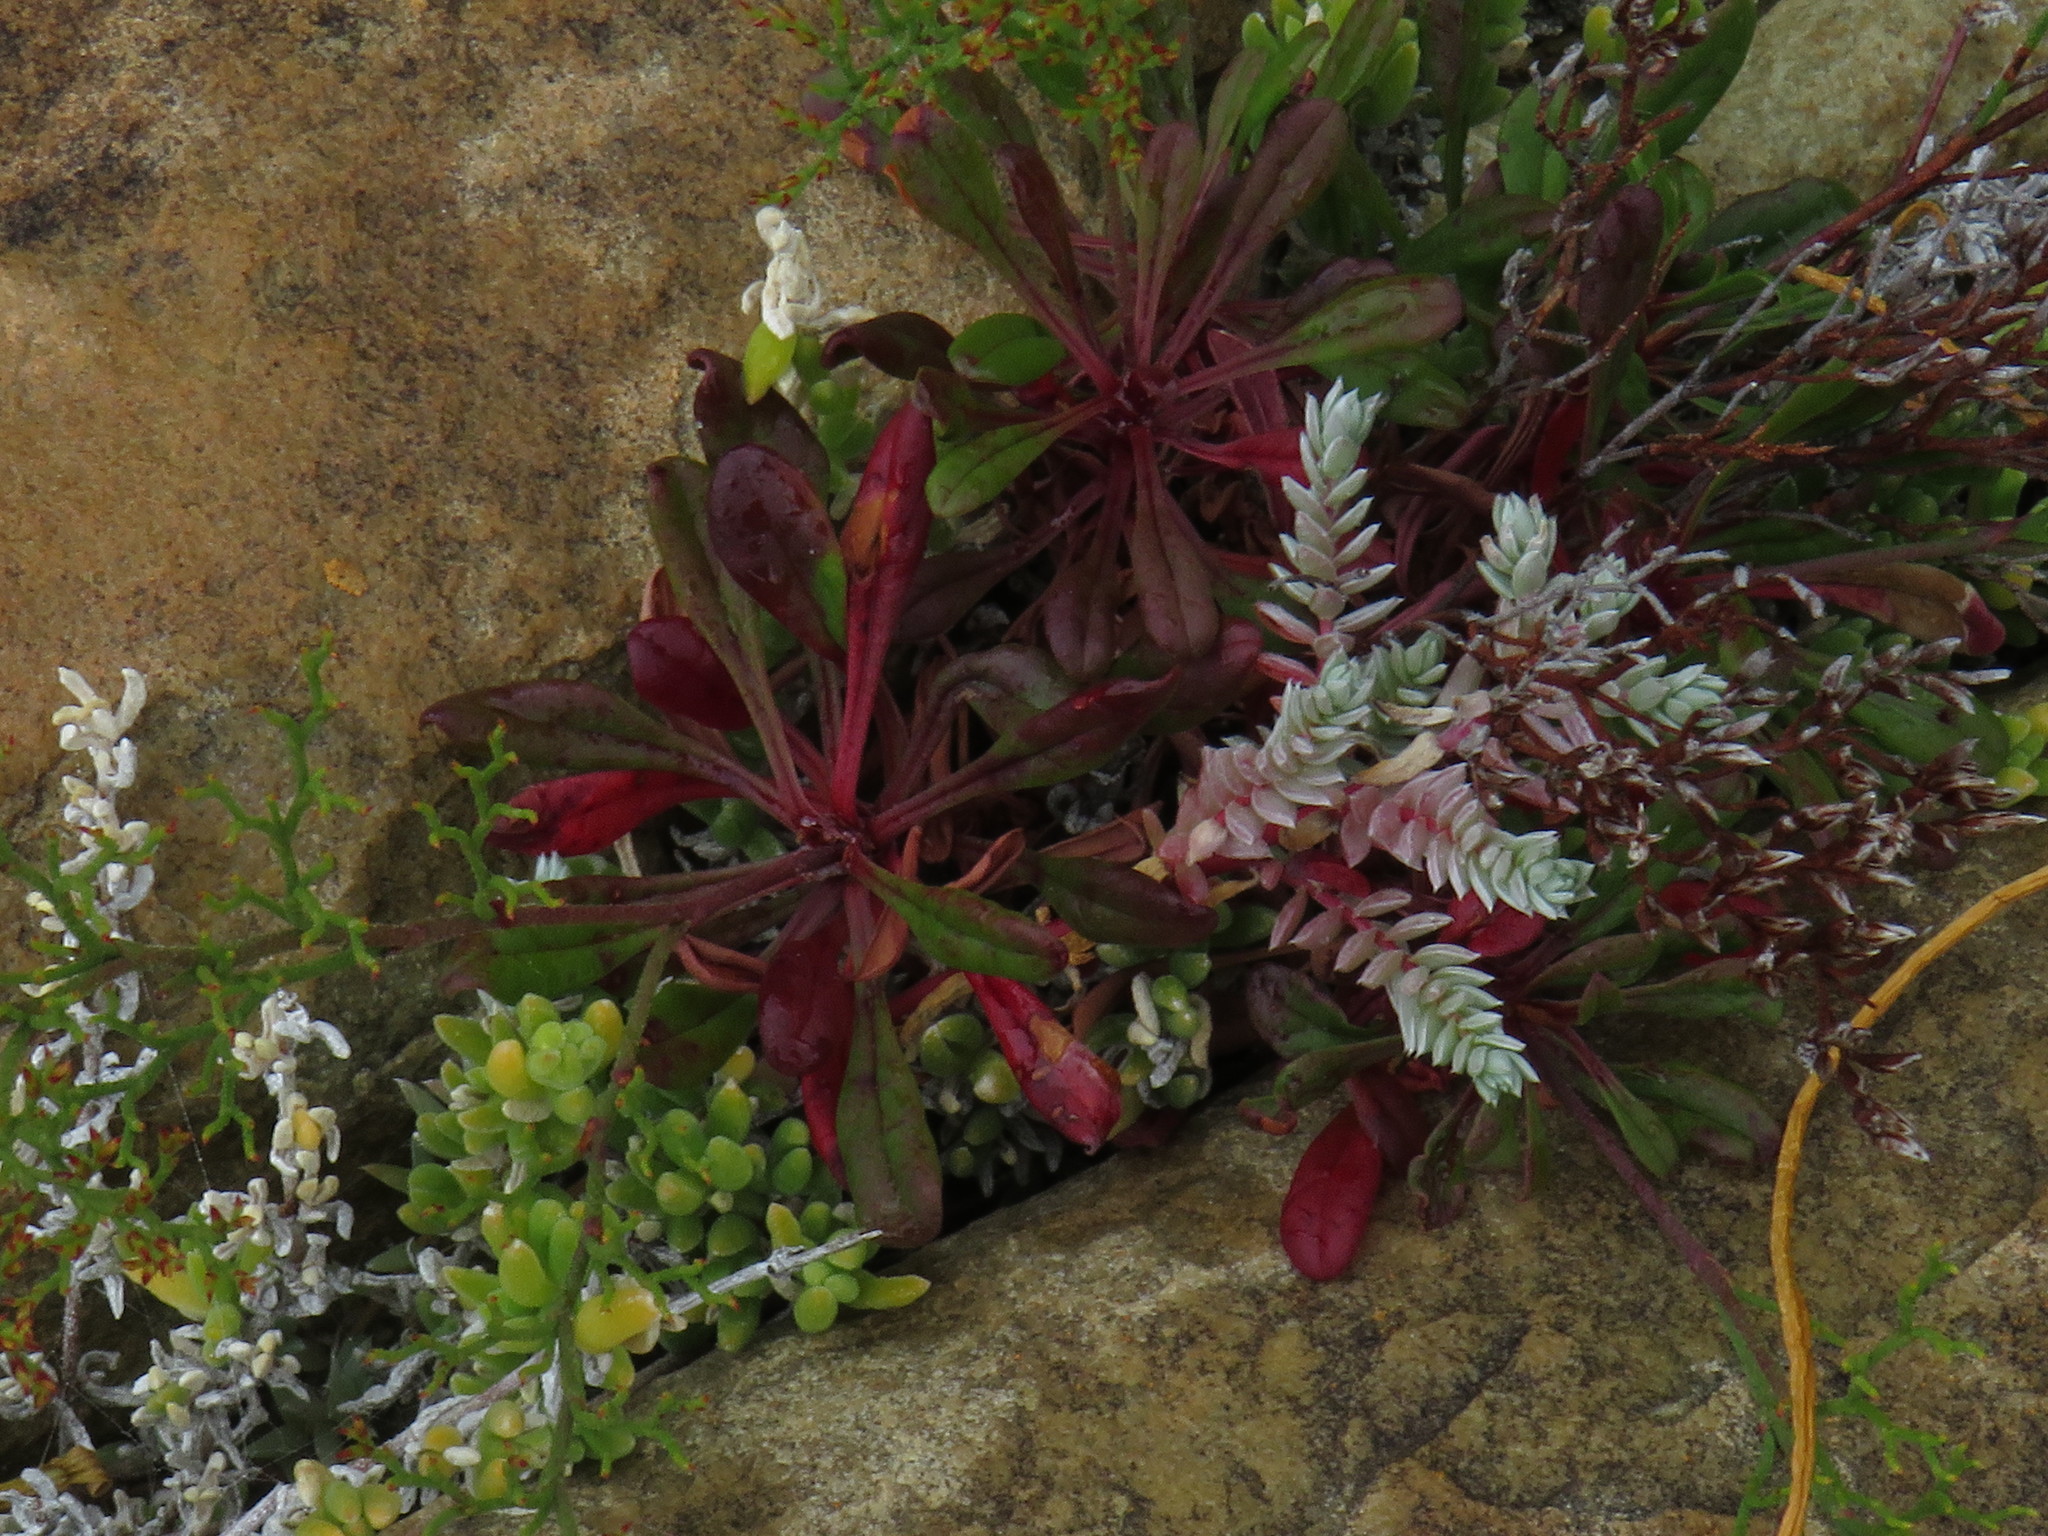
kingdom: Plantae
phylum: Tracheophyta
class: Magnoliopsida
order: Caryophyllales
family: Amaranthaceae
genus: Chenolea
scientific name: Chenolea diffusa
